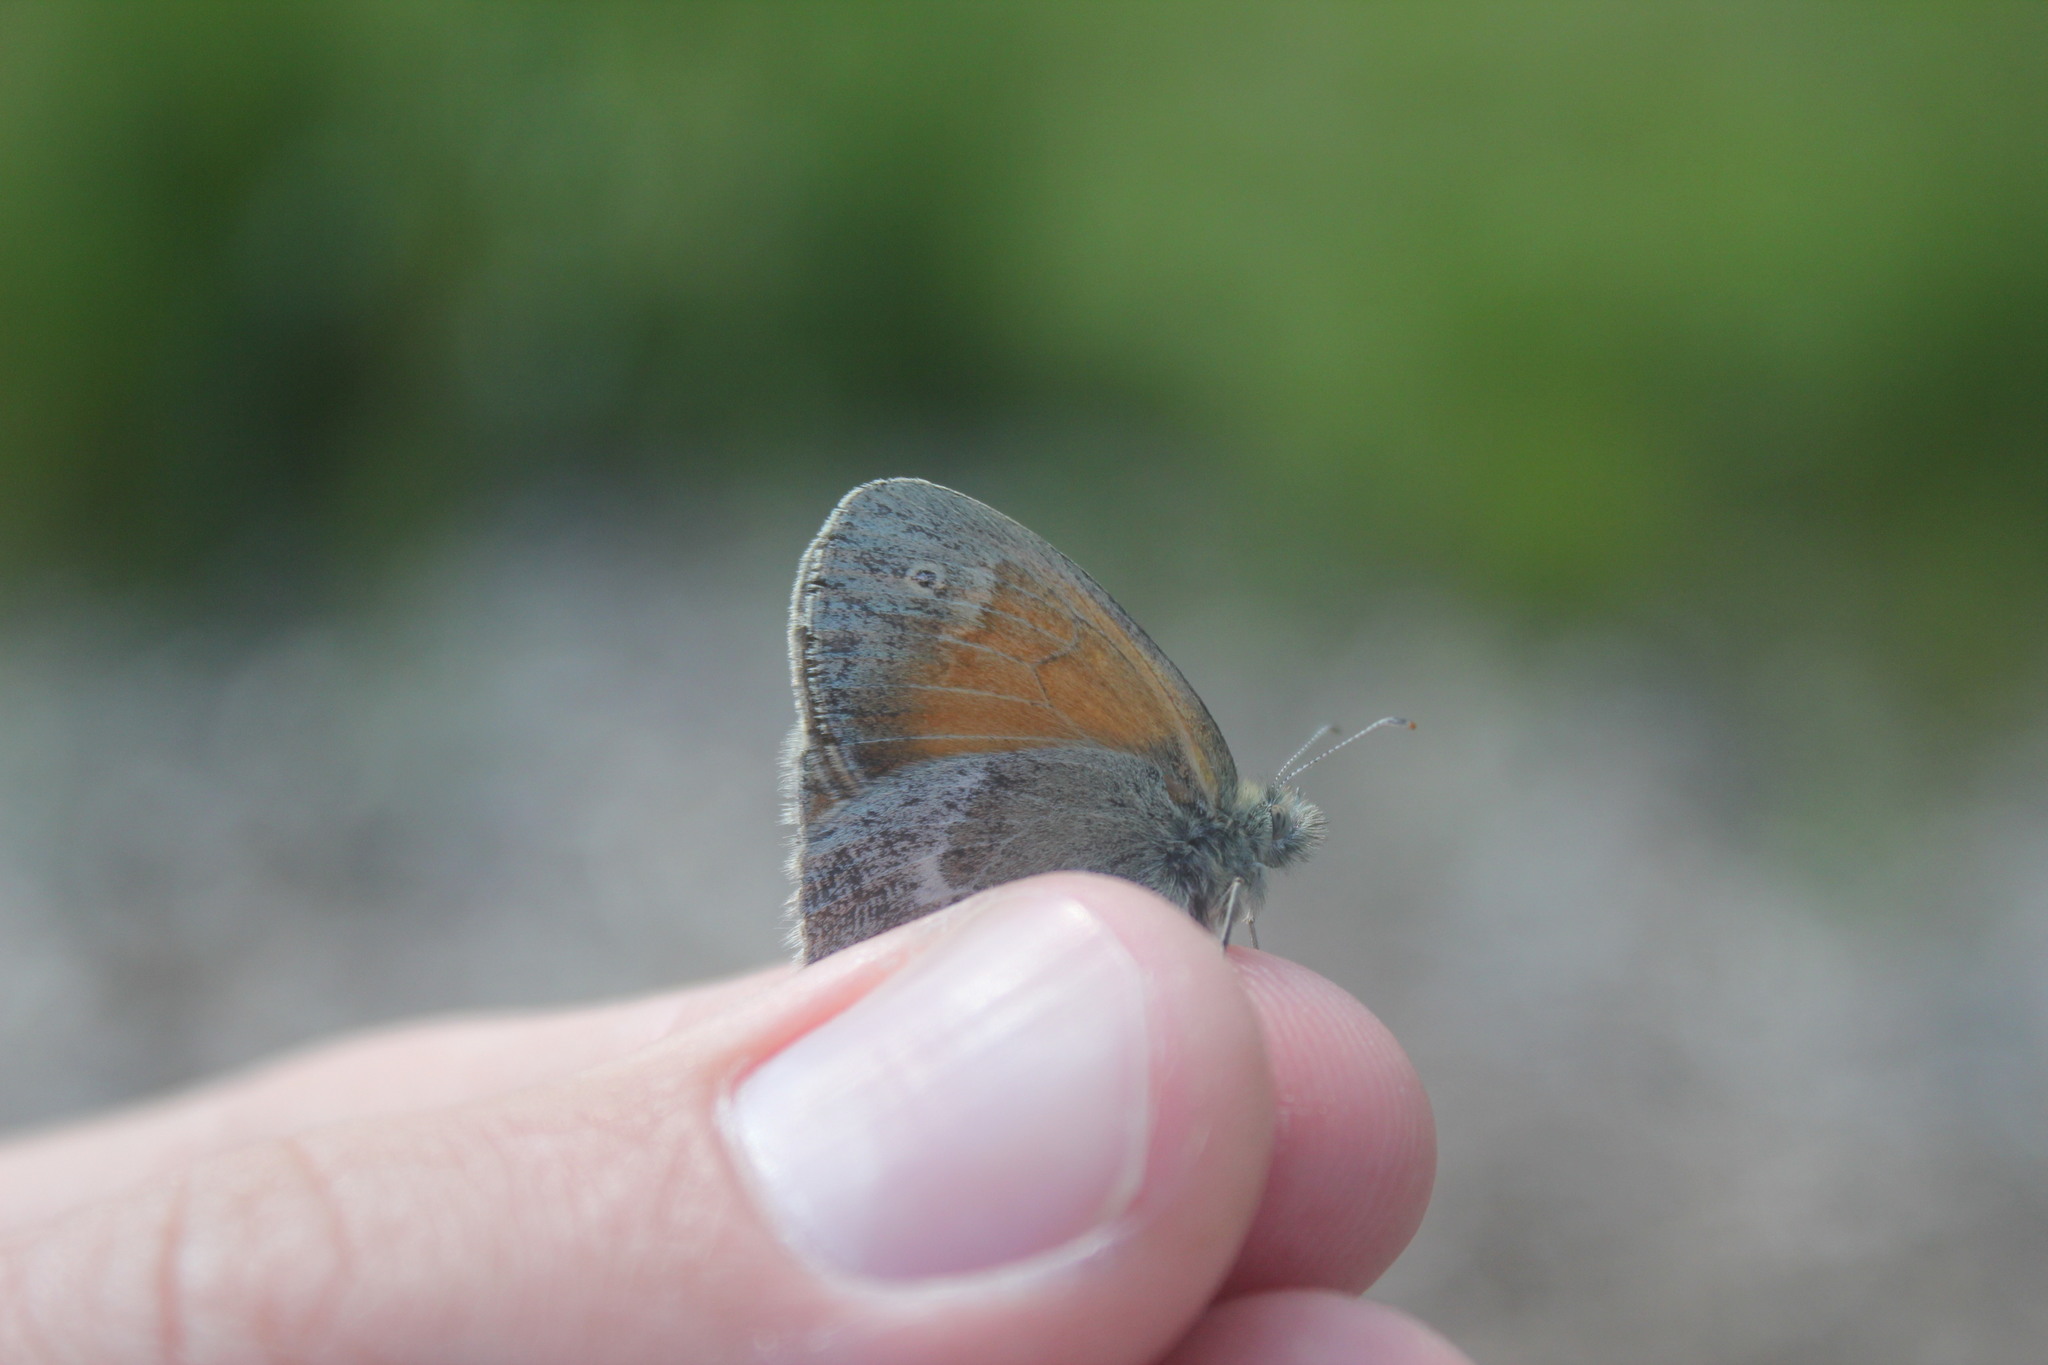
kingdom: Animalia
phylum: Arthropoda
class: Insecta
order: Lepidoptera
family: Nymphalidae
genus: Coenonympha
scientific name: Coenonympha california
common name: Common ringlet
